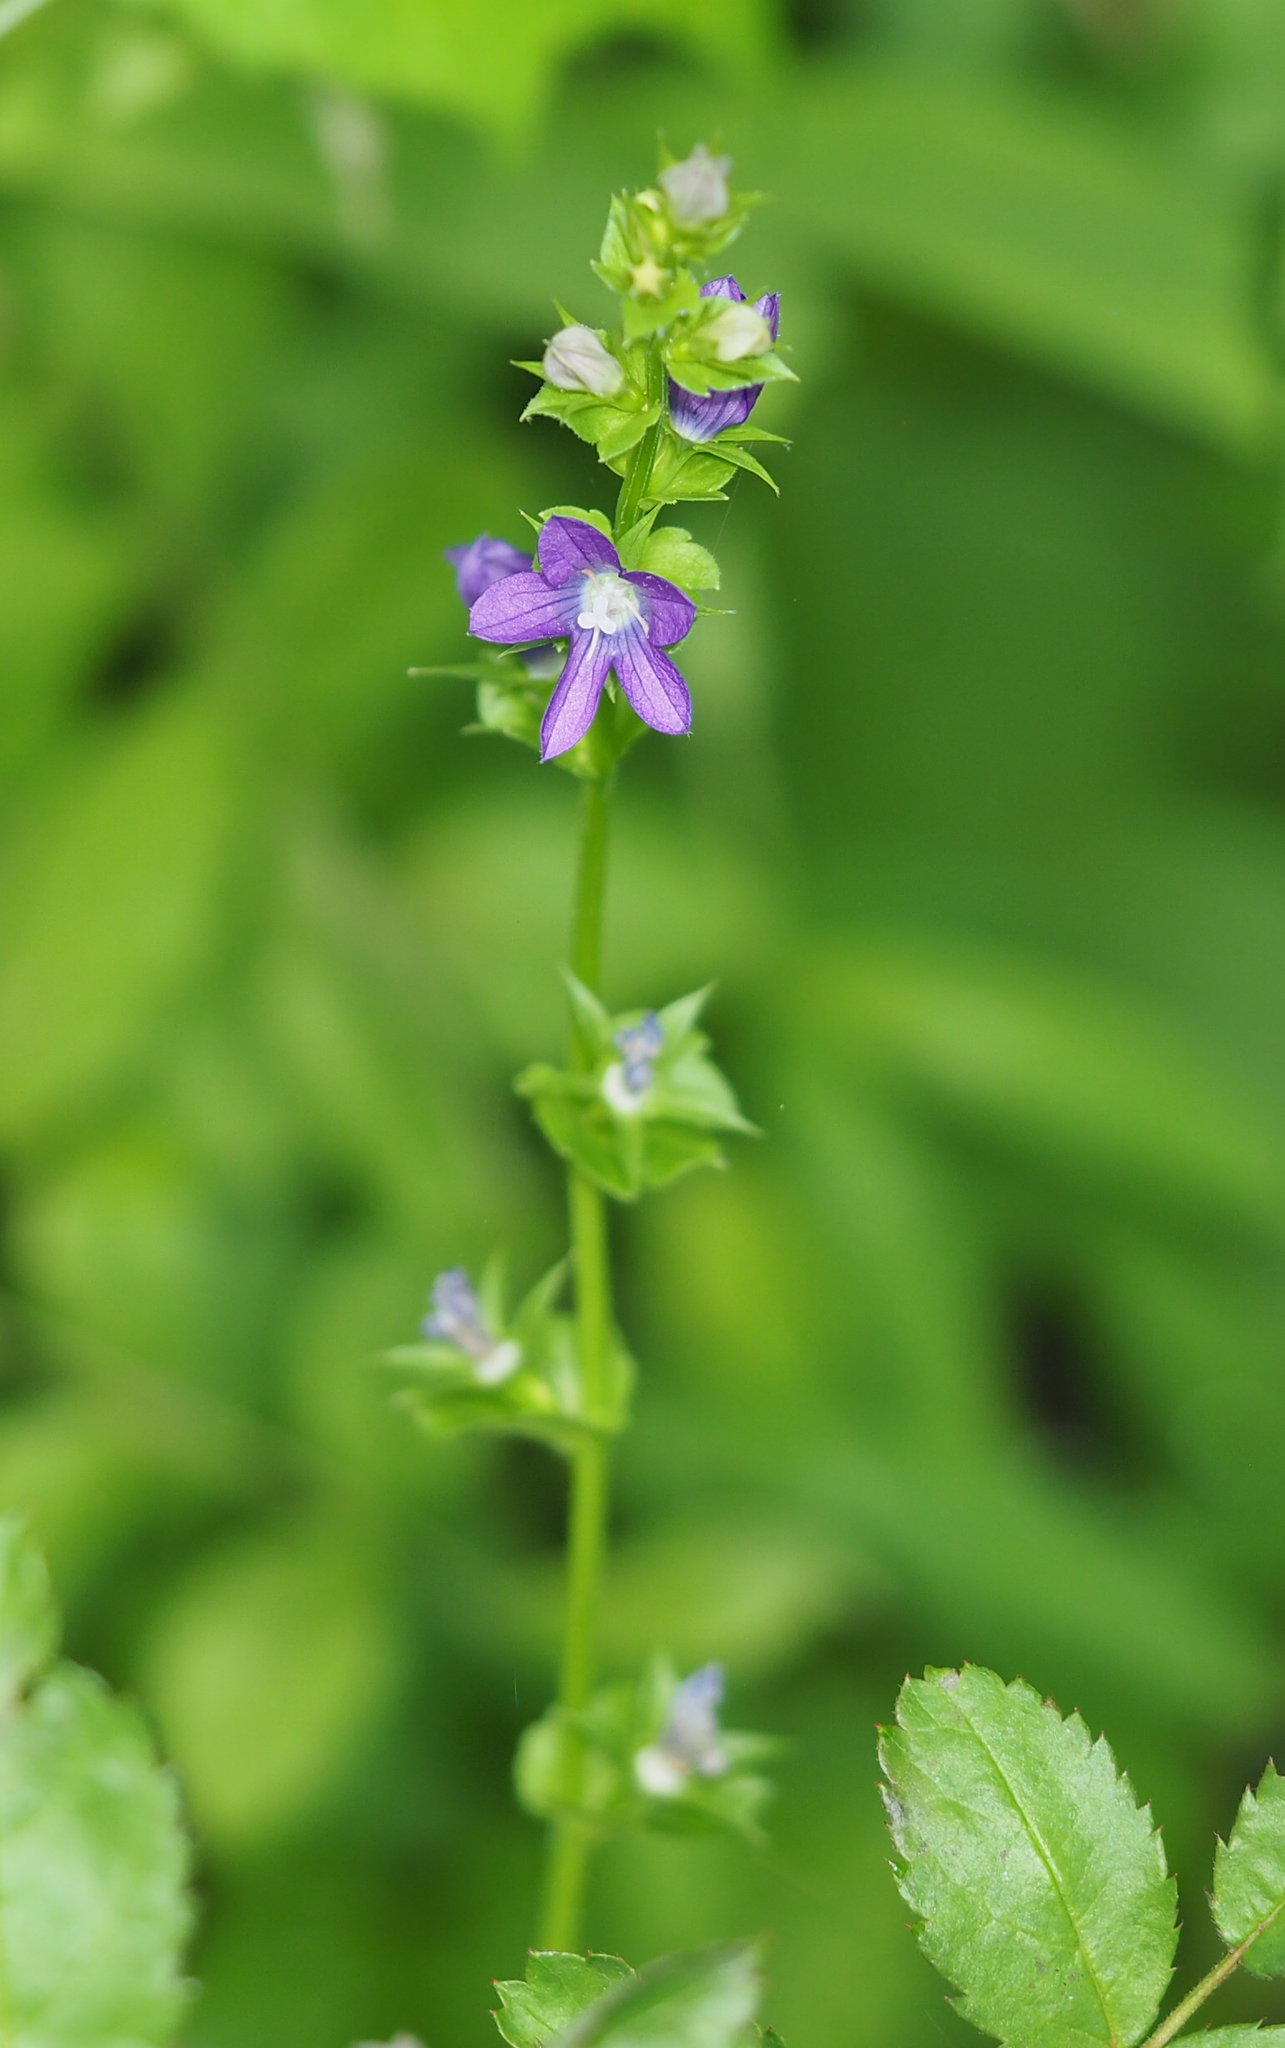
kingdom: Plantae
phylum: Tracheophyta
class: Magnoliopsida
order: Asterales
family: Campanulaceae
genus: Triodanis
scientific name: Triodanis perfoliata
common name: Clasping venus' looking-glass
